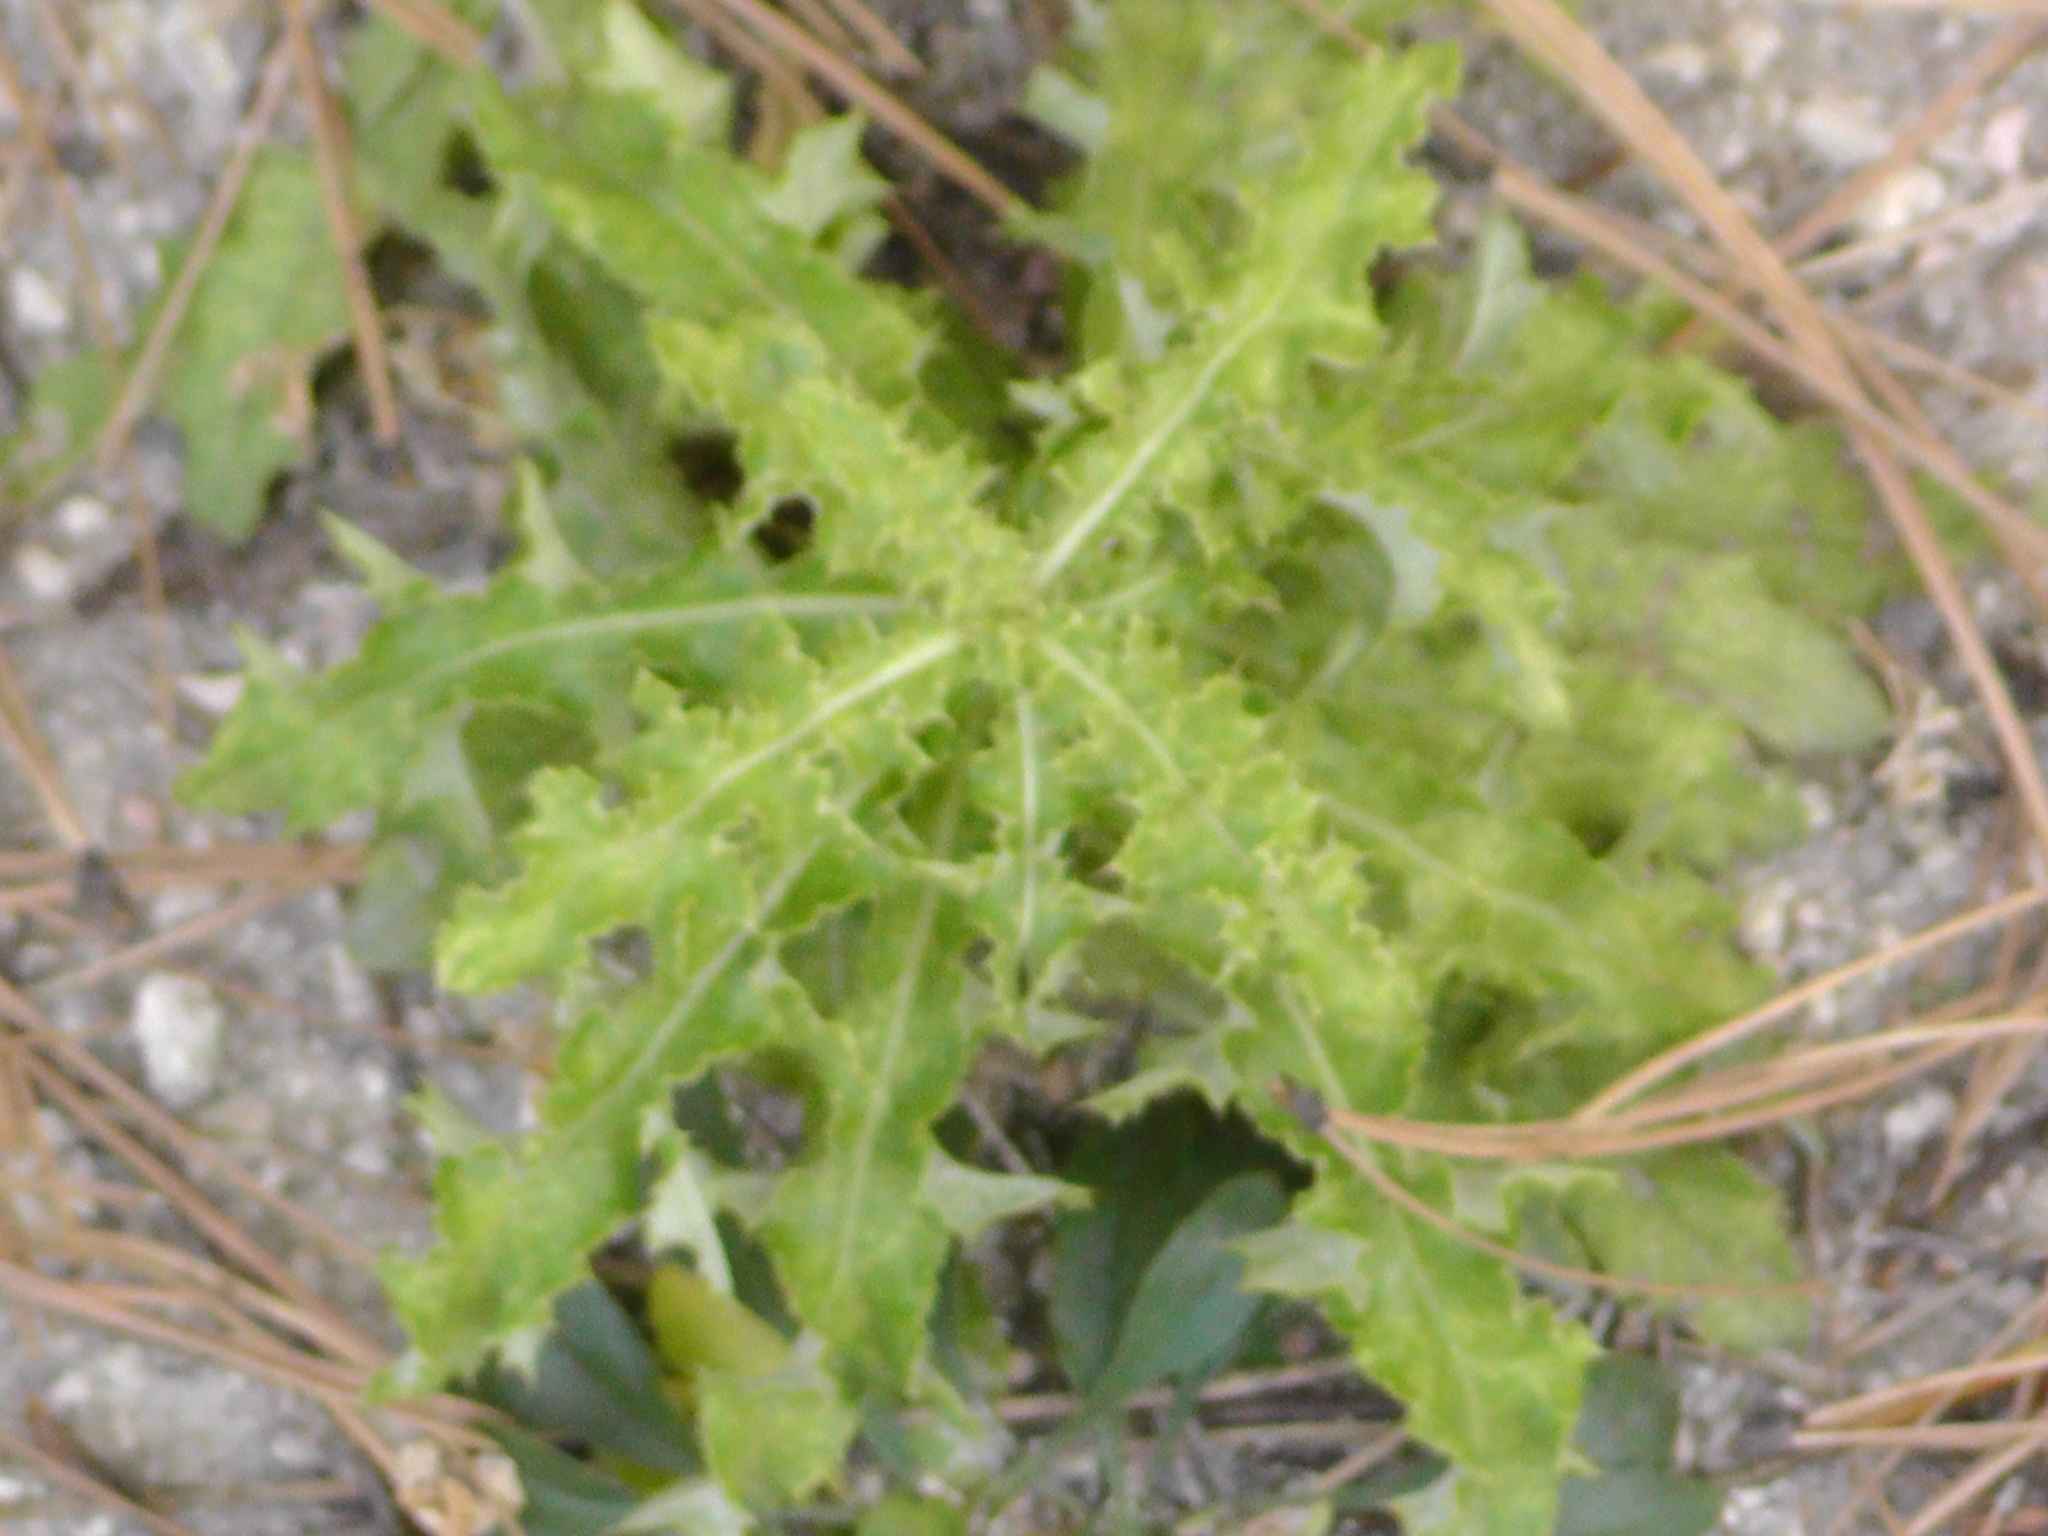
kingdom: Plantae
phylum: Tracheophyta
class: Magnoliopsida
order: Asterales
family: Asteraceae
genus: Cirsium
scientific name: Cirsium arvense
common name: Creeping thistle
